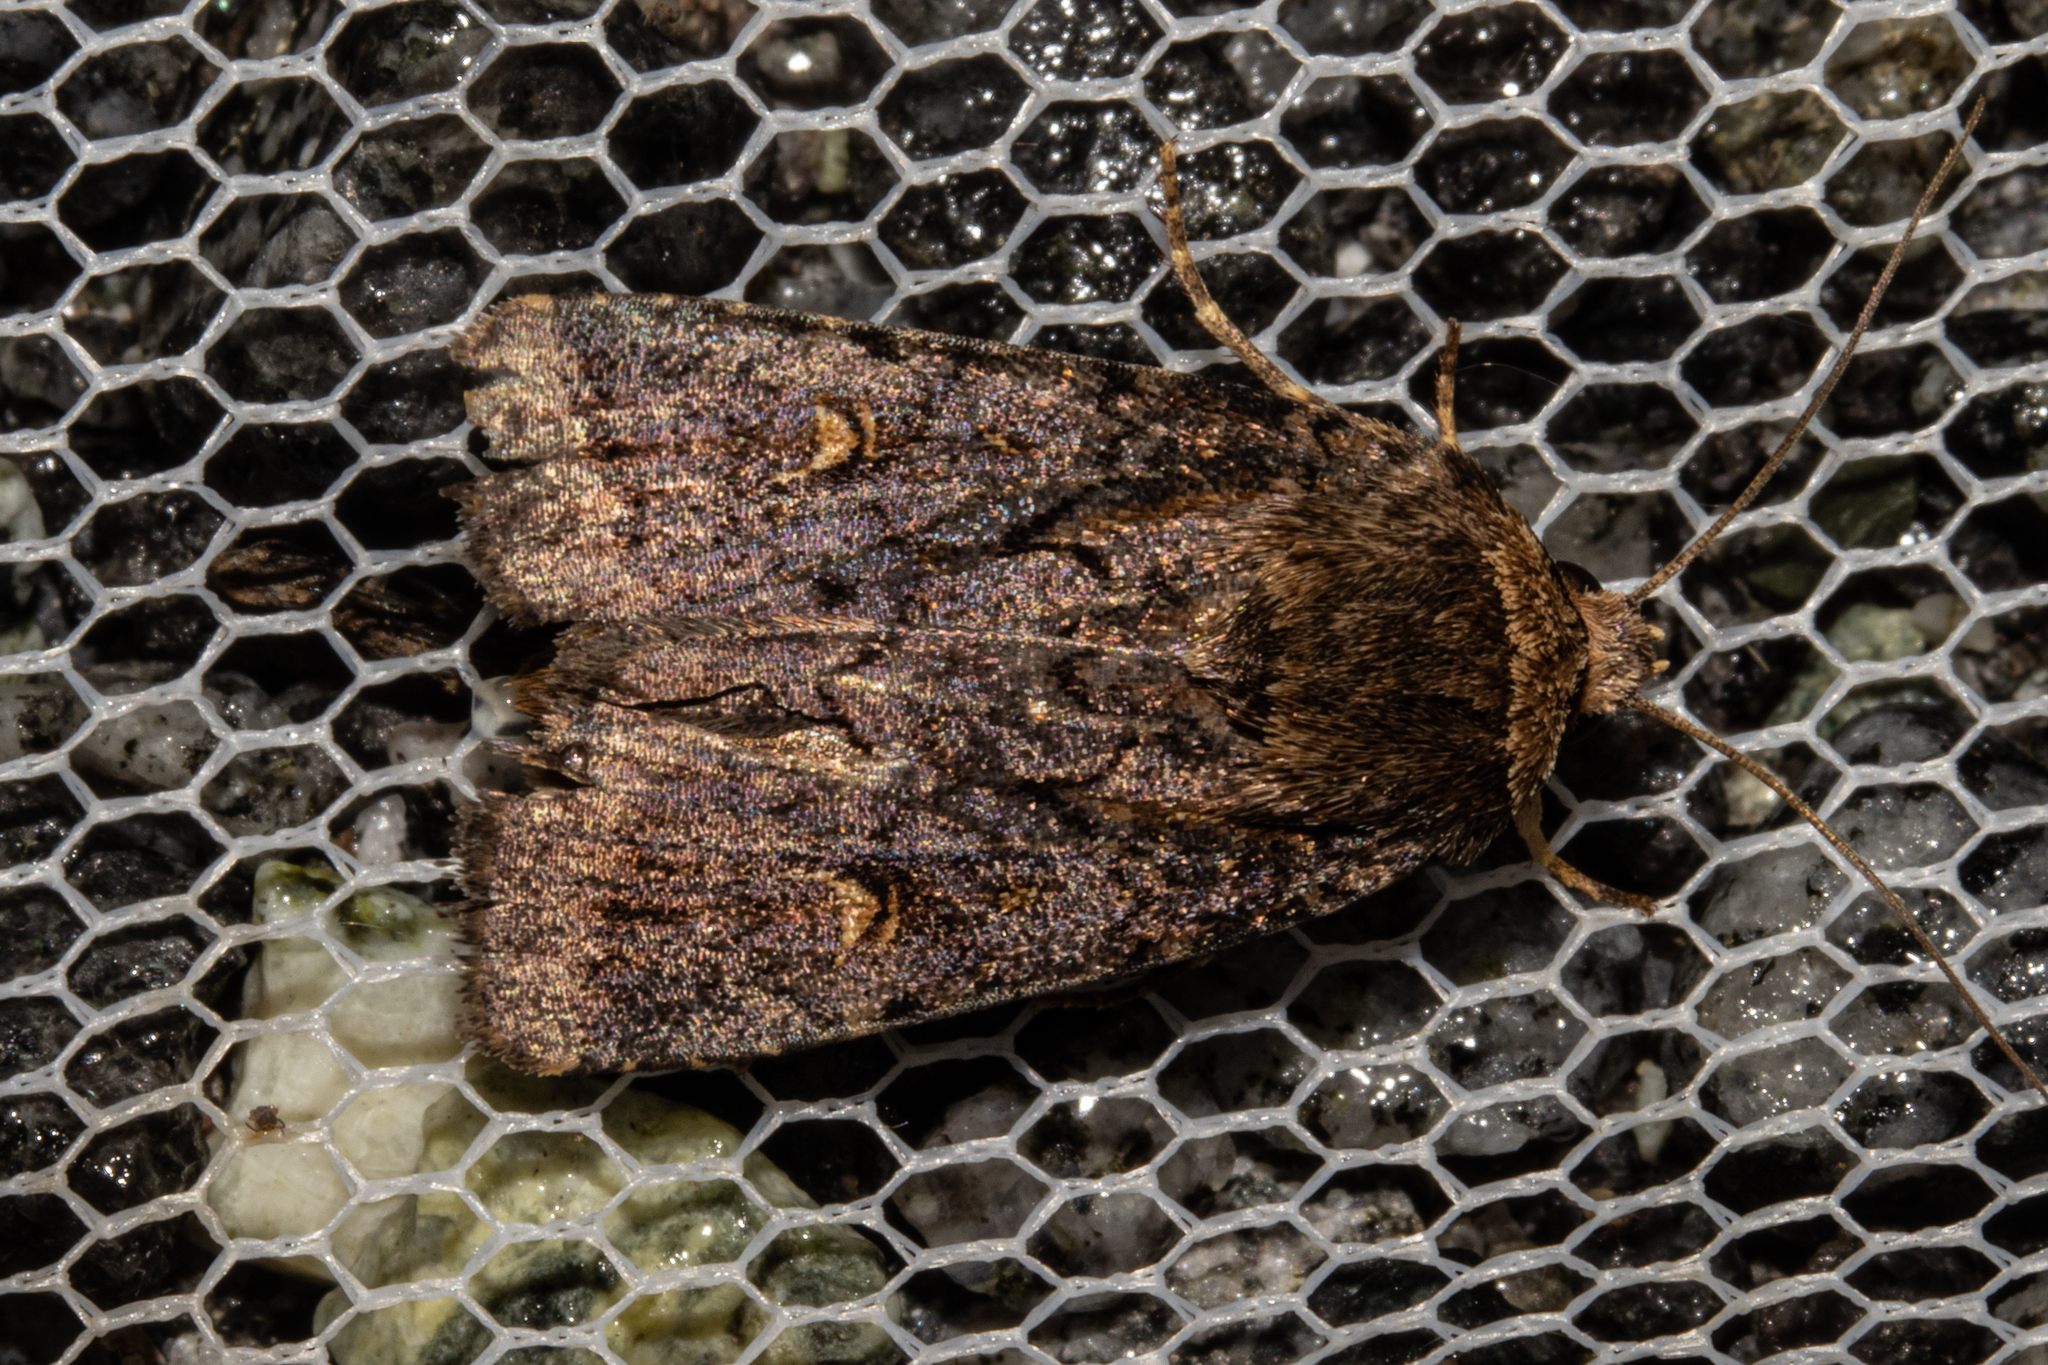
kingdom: Animalia
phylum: Arthropoda
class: Insecta
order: Lepidoptera
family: Noctuidae
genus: Proteuxoa
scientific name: Proteuxoa tetronycha
